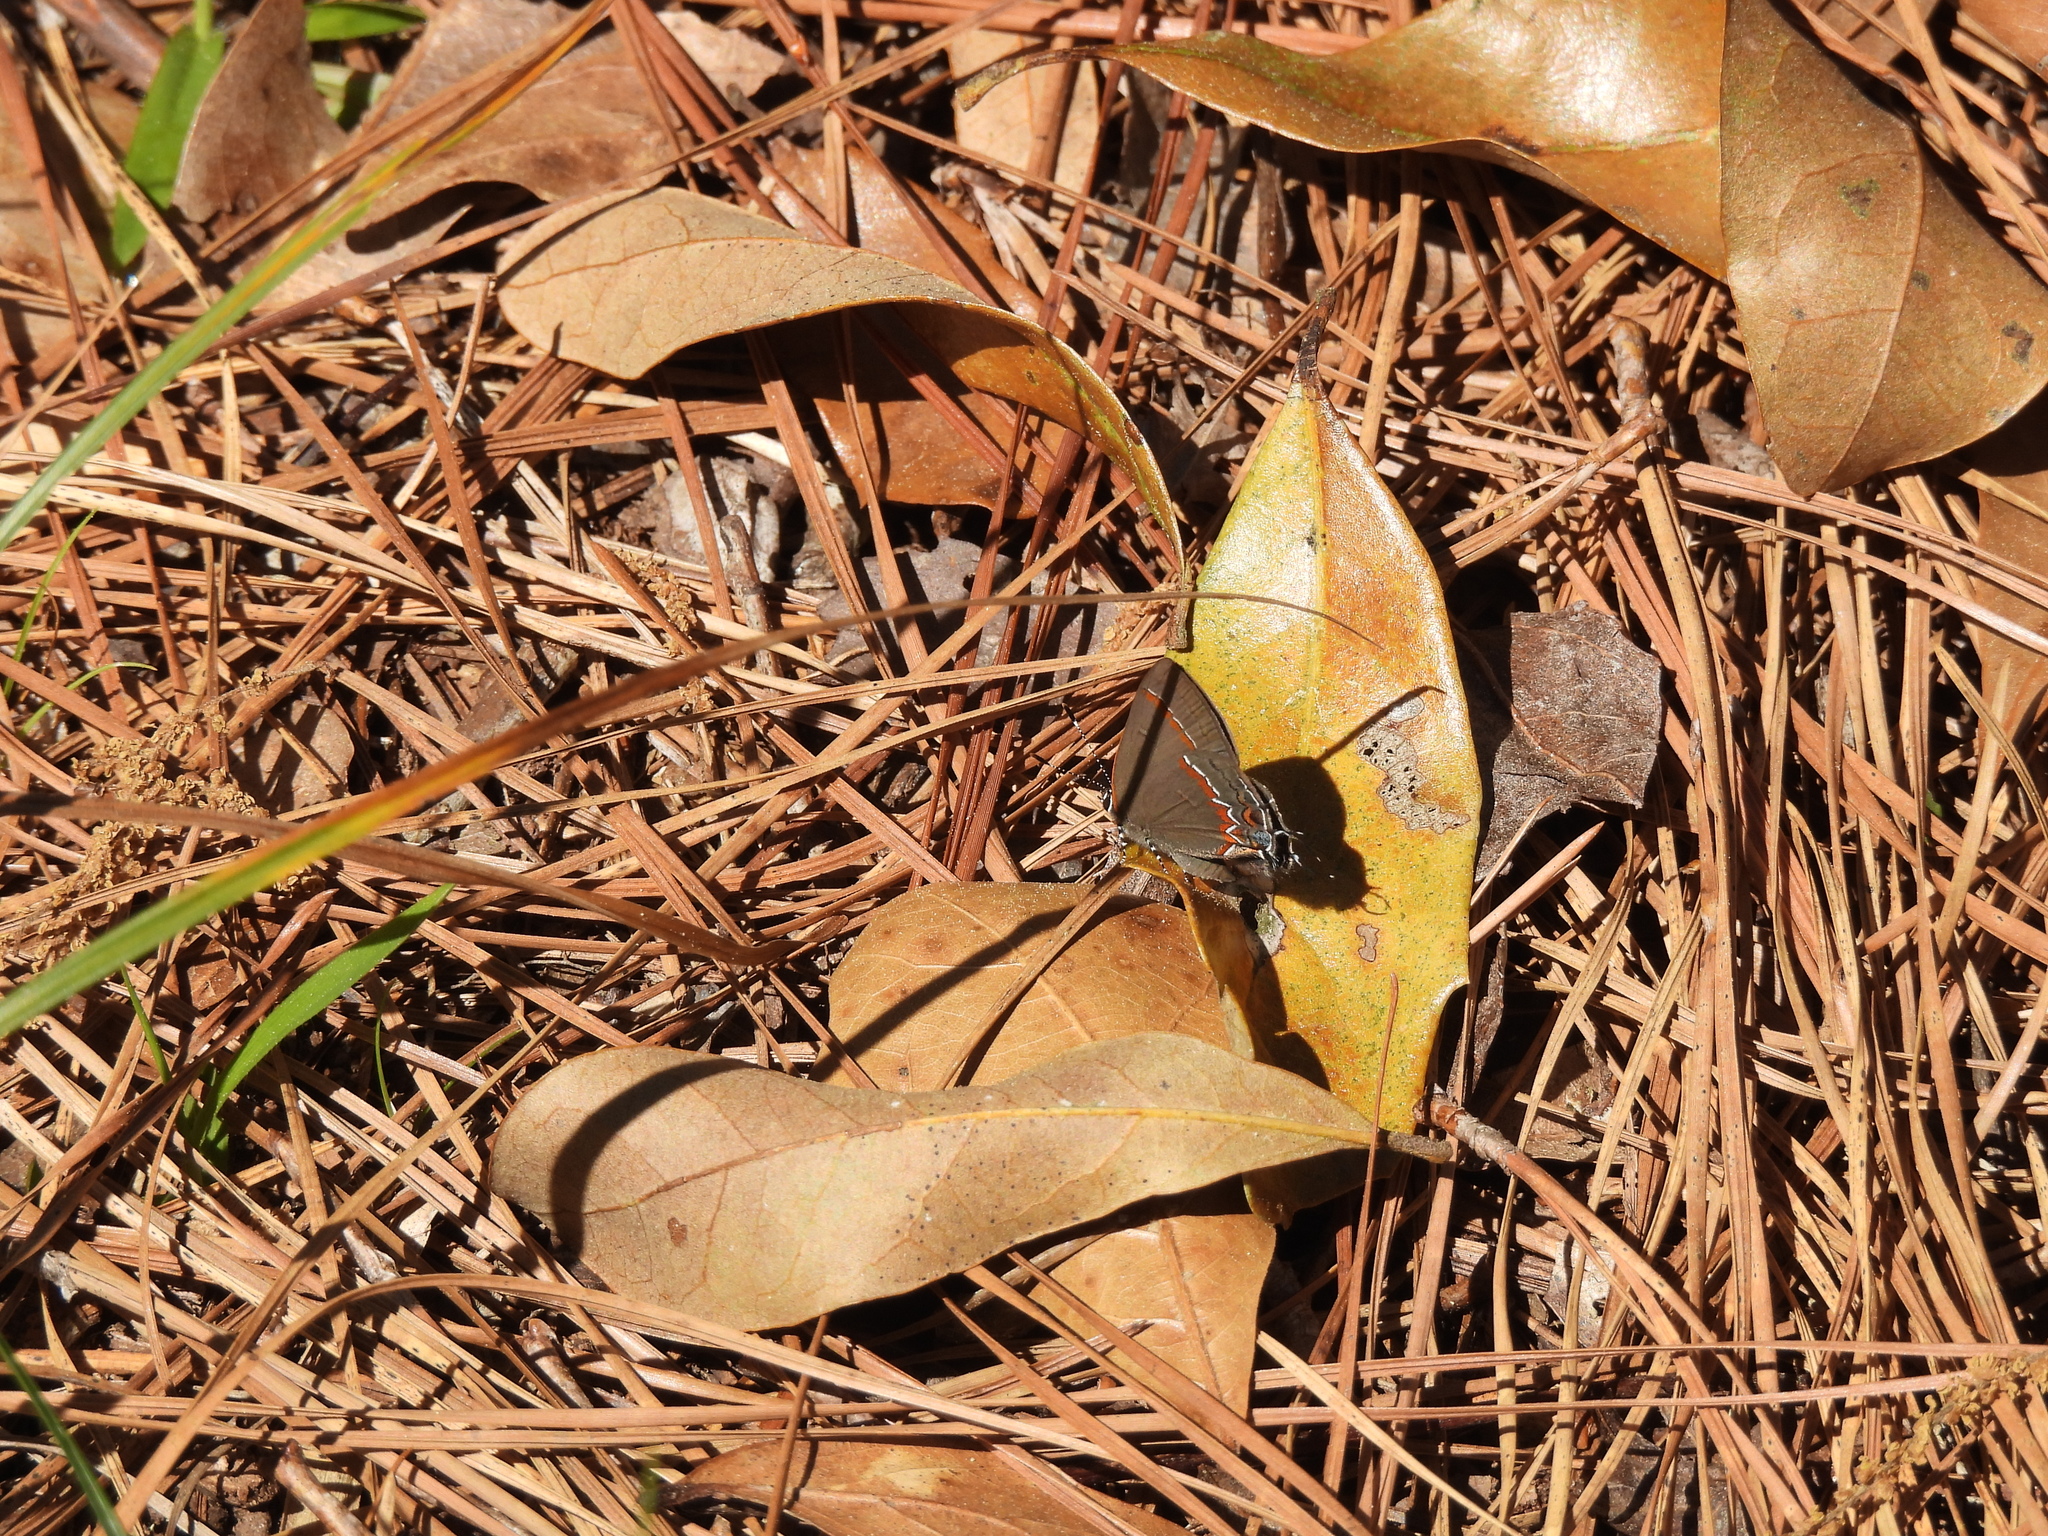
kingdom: Animalia
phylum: Arthropoda
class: Insecta
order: Lepidoptera
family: Lycaenidae
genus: Calycopis
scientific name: Calycopis cecrops
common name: Red-banded hairstreak
